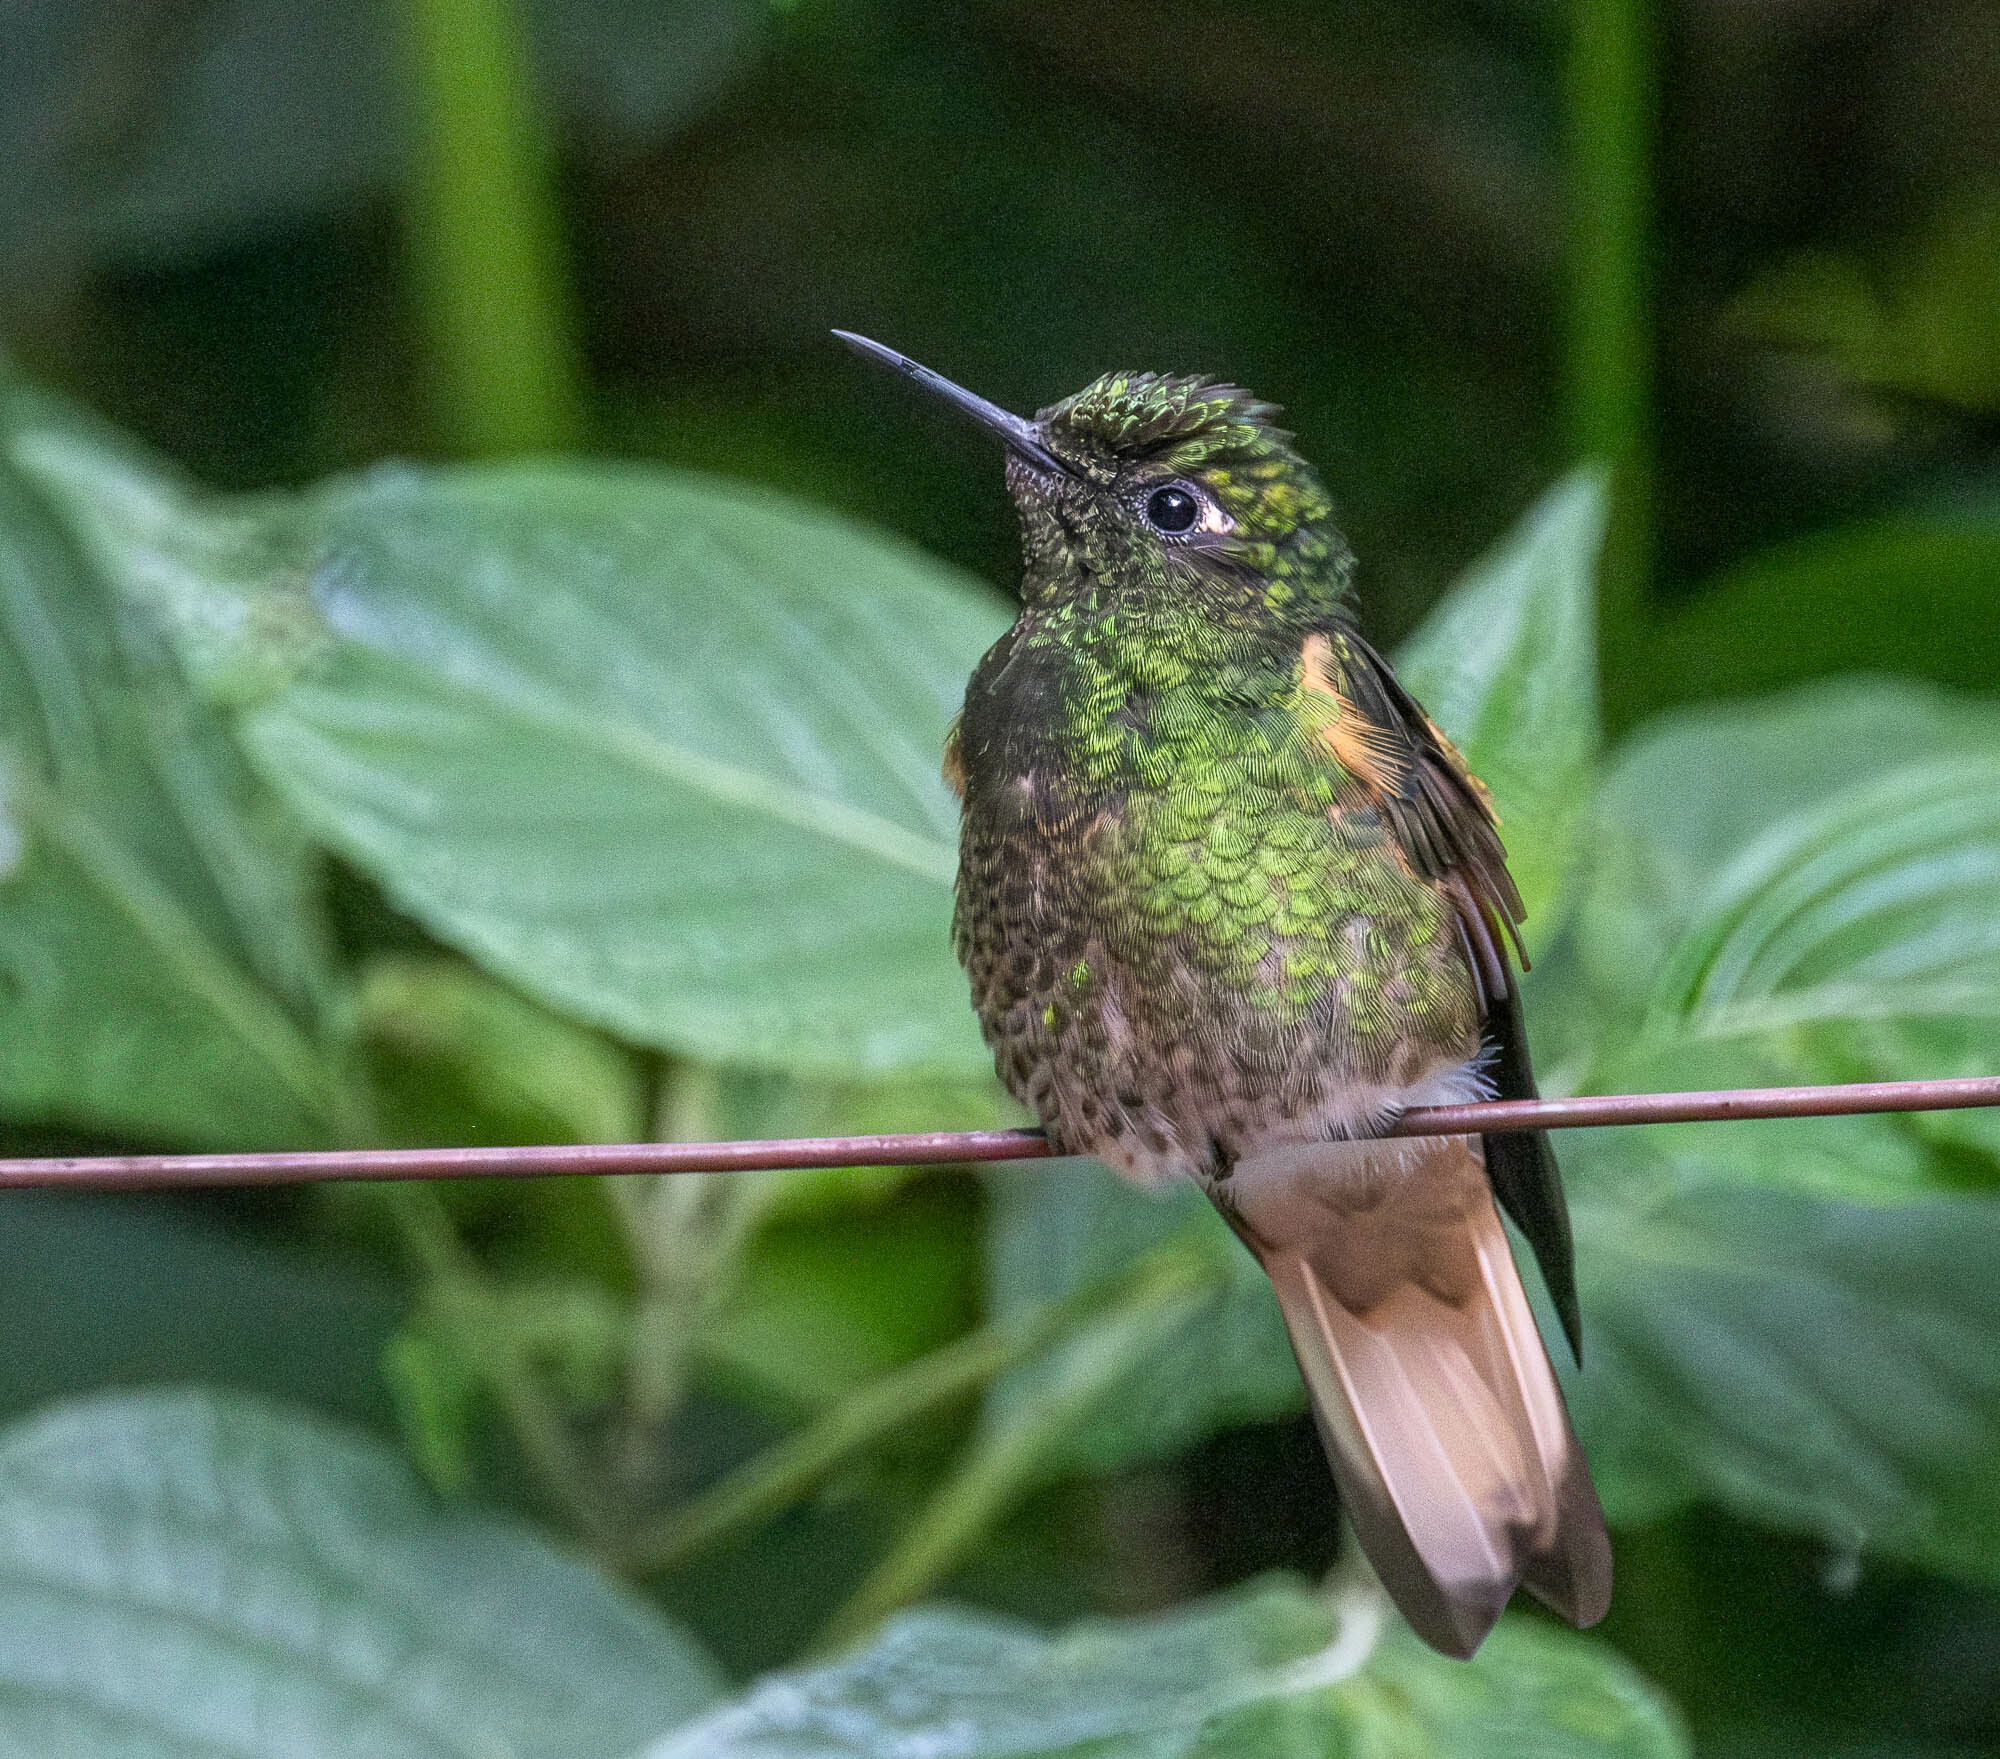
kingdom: Animalia
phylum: Chordata
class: Aves
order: Apodiformes
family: Trochilidae
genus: Boissonneaua
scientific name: Boissonneaua flavescens
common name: Buff-tailed coronet
